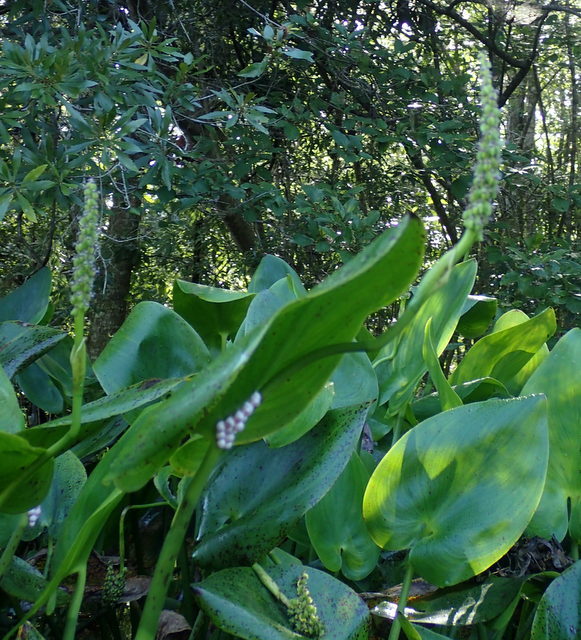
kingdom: Plantae
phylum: Tracheophyta
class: Liliopsida
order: Commelinales
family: Pontederiaceae
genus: Pontederia
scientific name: Pontederia cordata
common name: Pickerelweed
